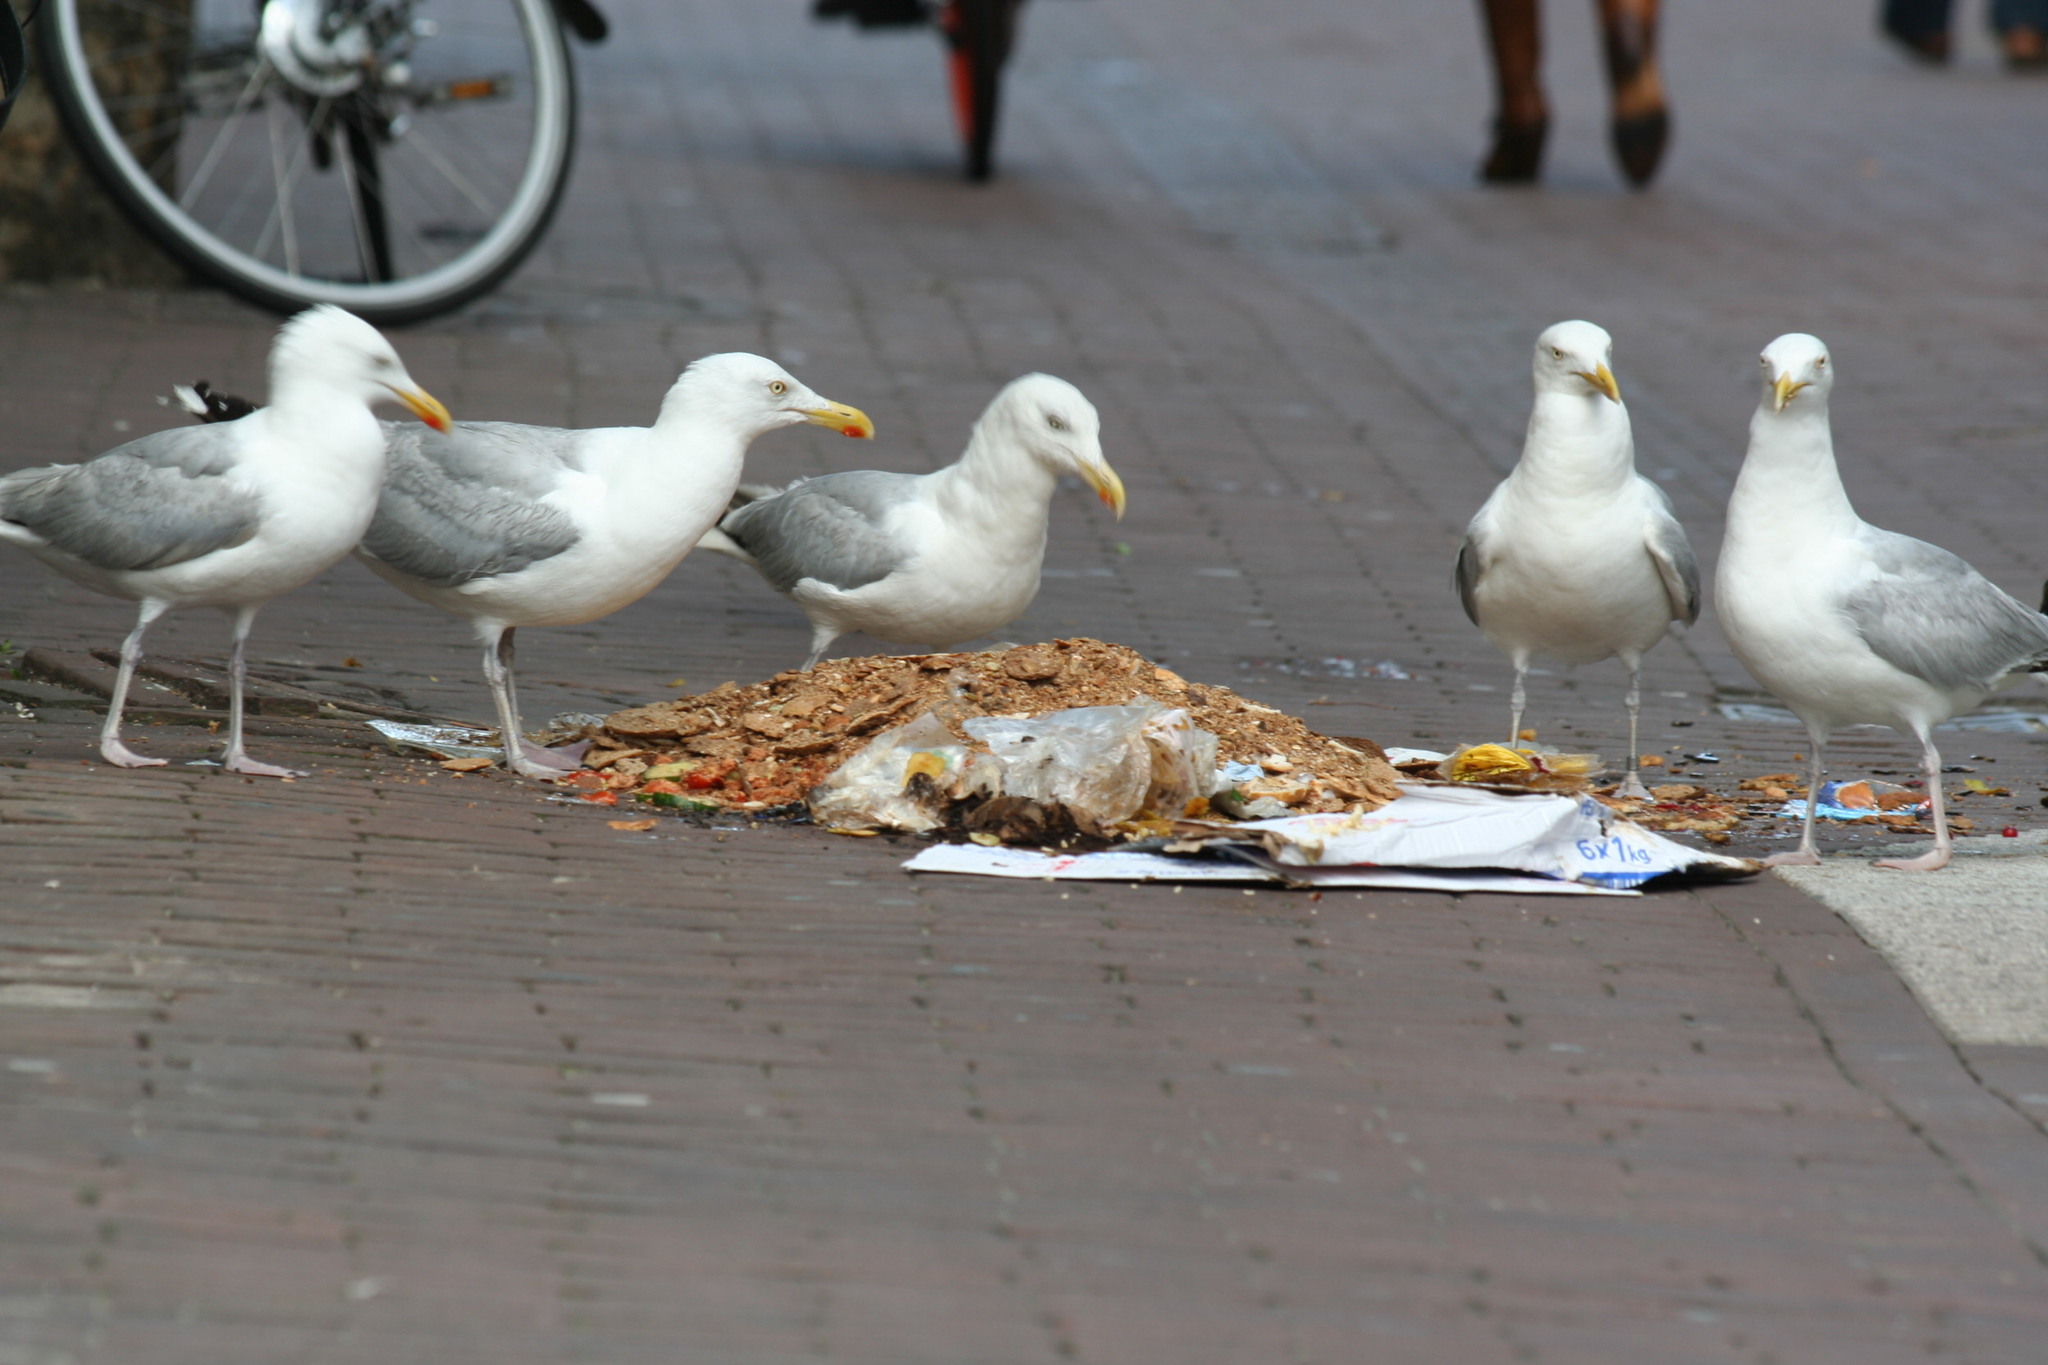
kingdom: Animalia
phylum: Chordata
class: Aves
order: Charadriiformes
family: Laridae
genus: Larus
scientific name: Larus argentatus
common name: Herring gull
